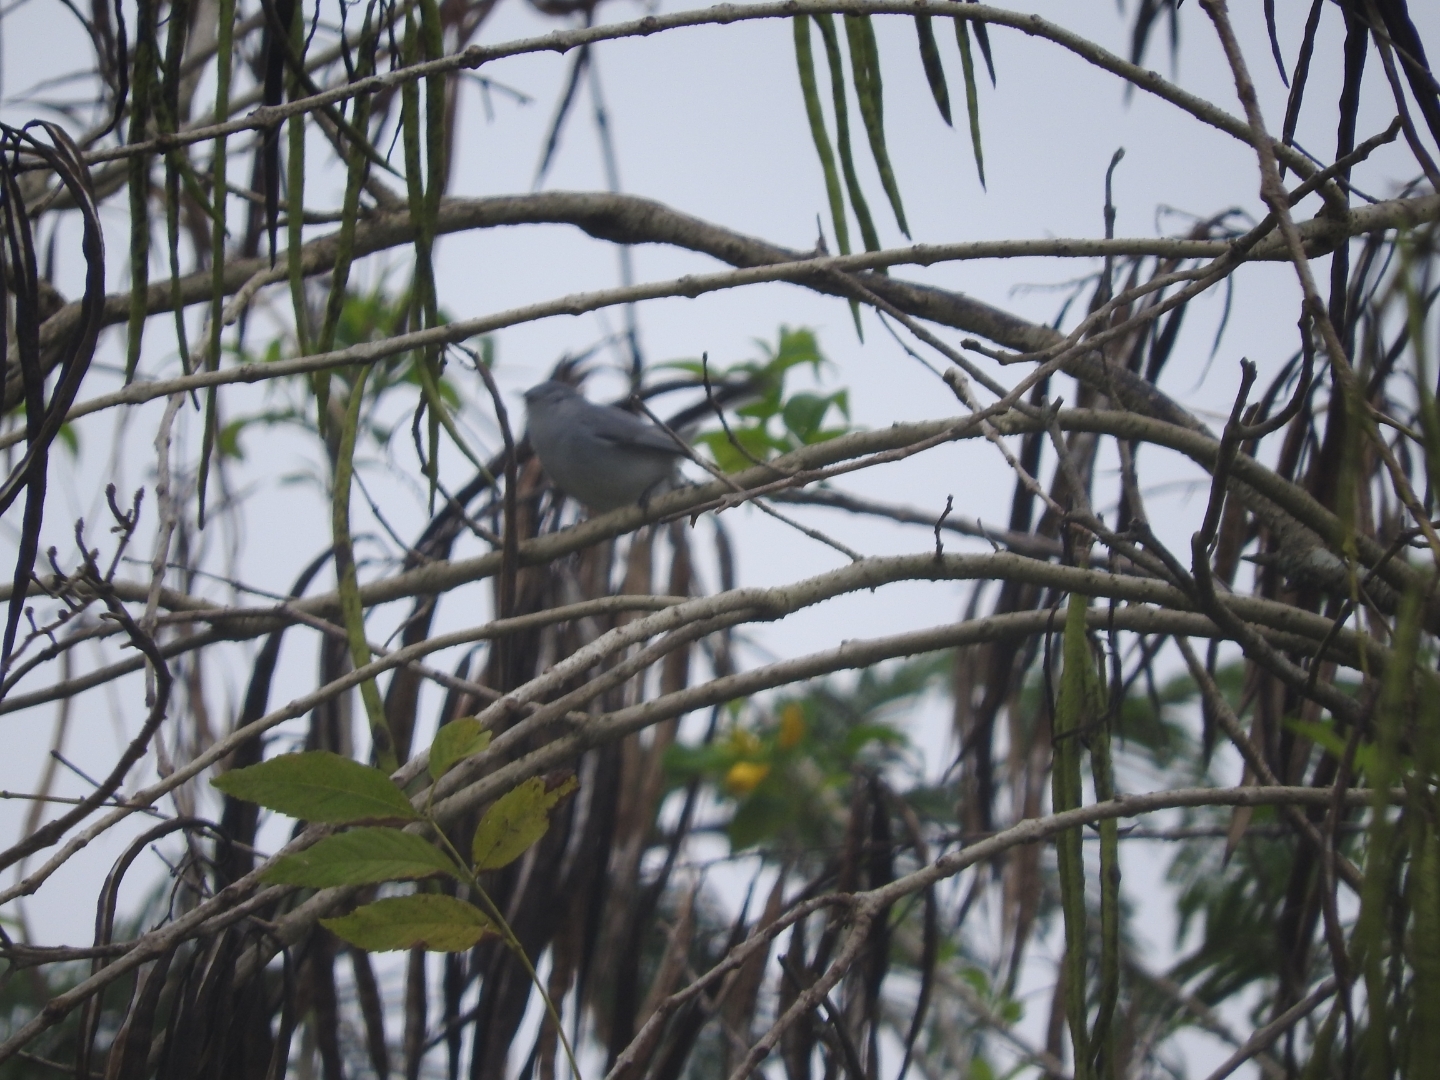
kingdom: Animalia
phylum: Chordata
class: Aves
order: Passeriformes
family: Polioptilidae
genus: Polioptila
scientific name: Polioptila caerulea
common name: Blue-gray gnatcatcher
